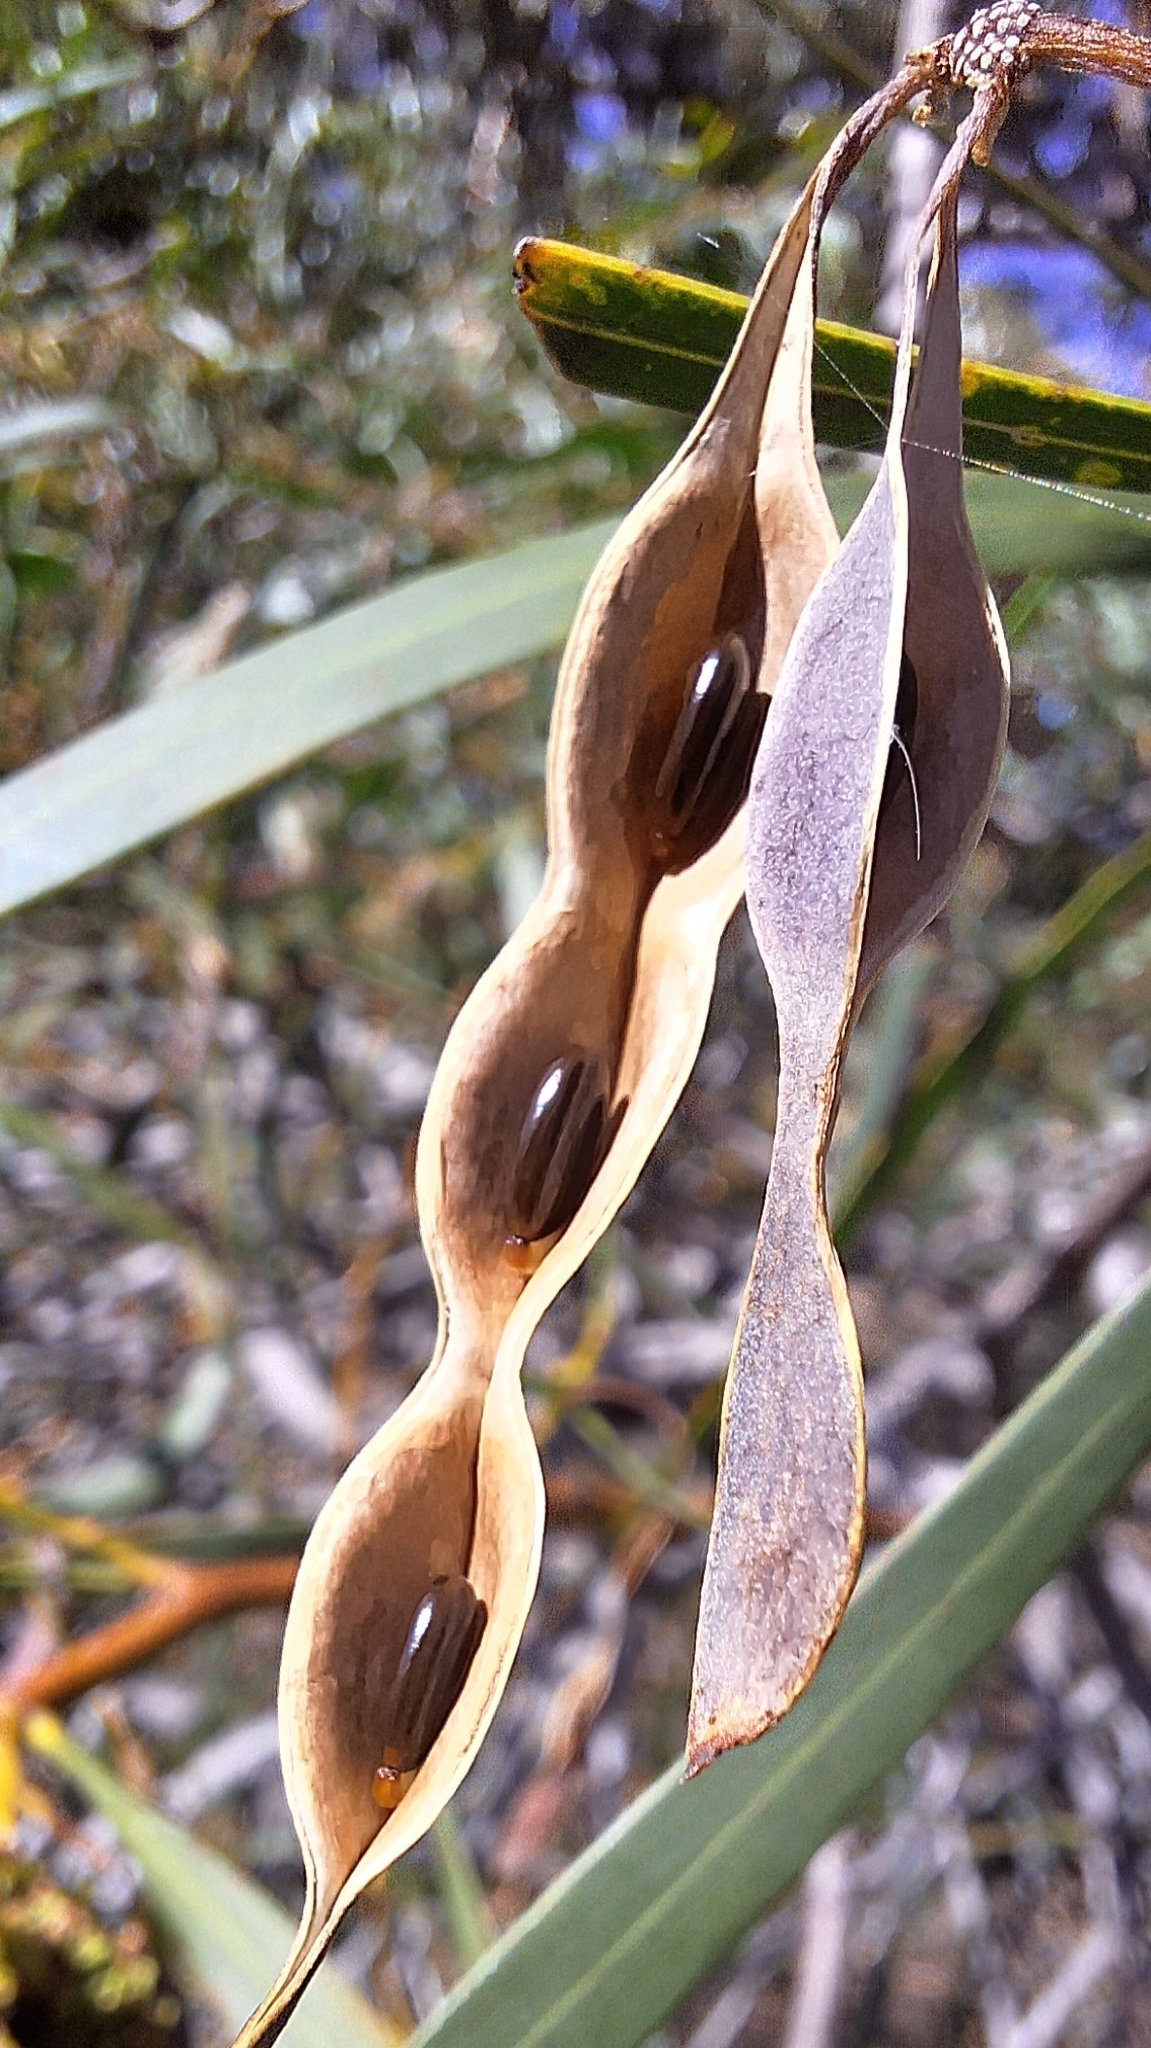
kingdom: Plantae
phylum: Tracheophyta
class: Magnoliopsida
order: Fabales
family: Fabaceae
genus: Acacia
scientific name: Acacia saligna
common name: Orange wattle
